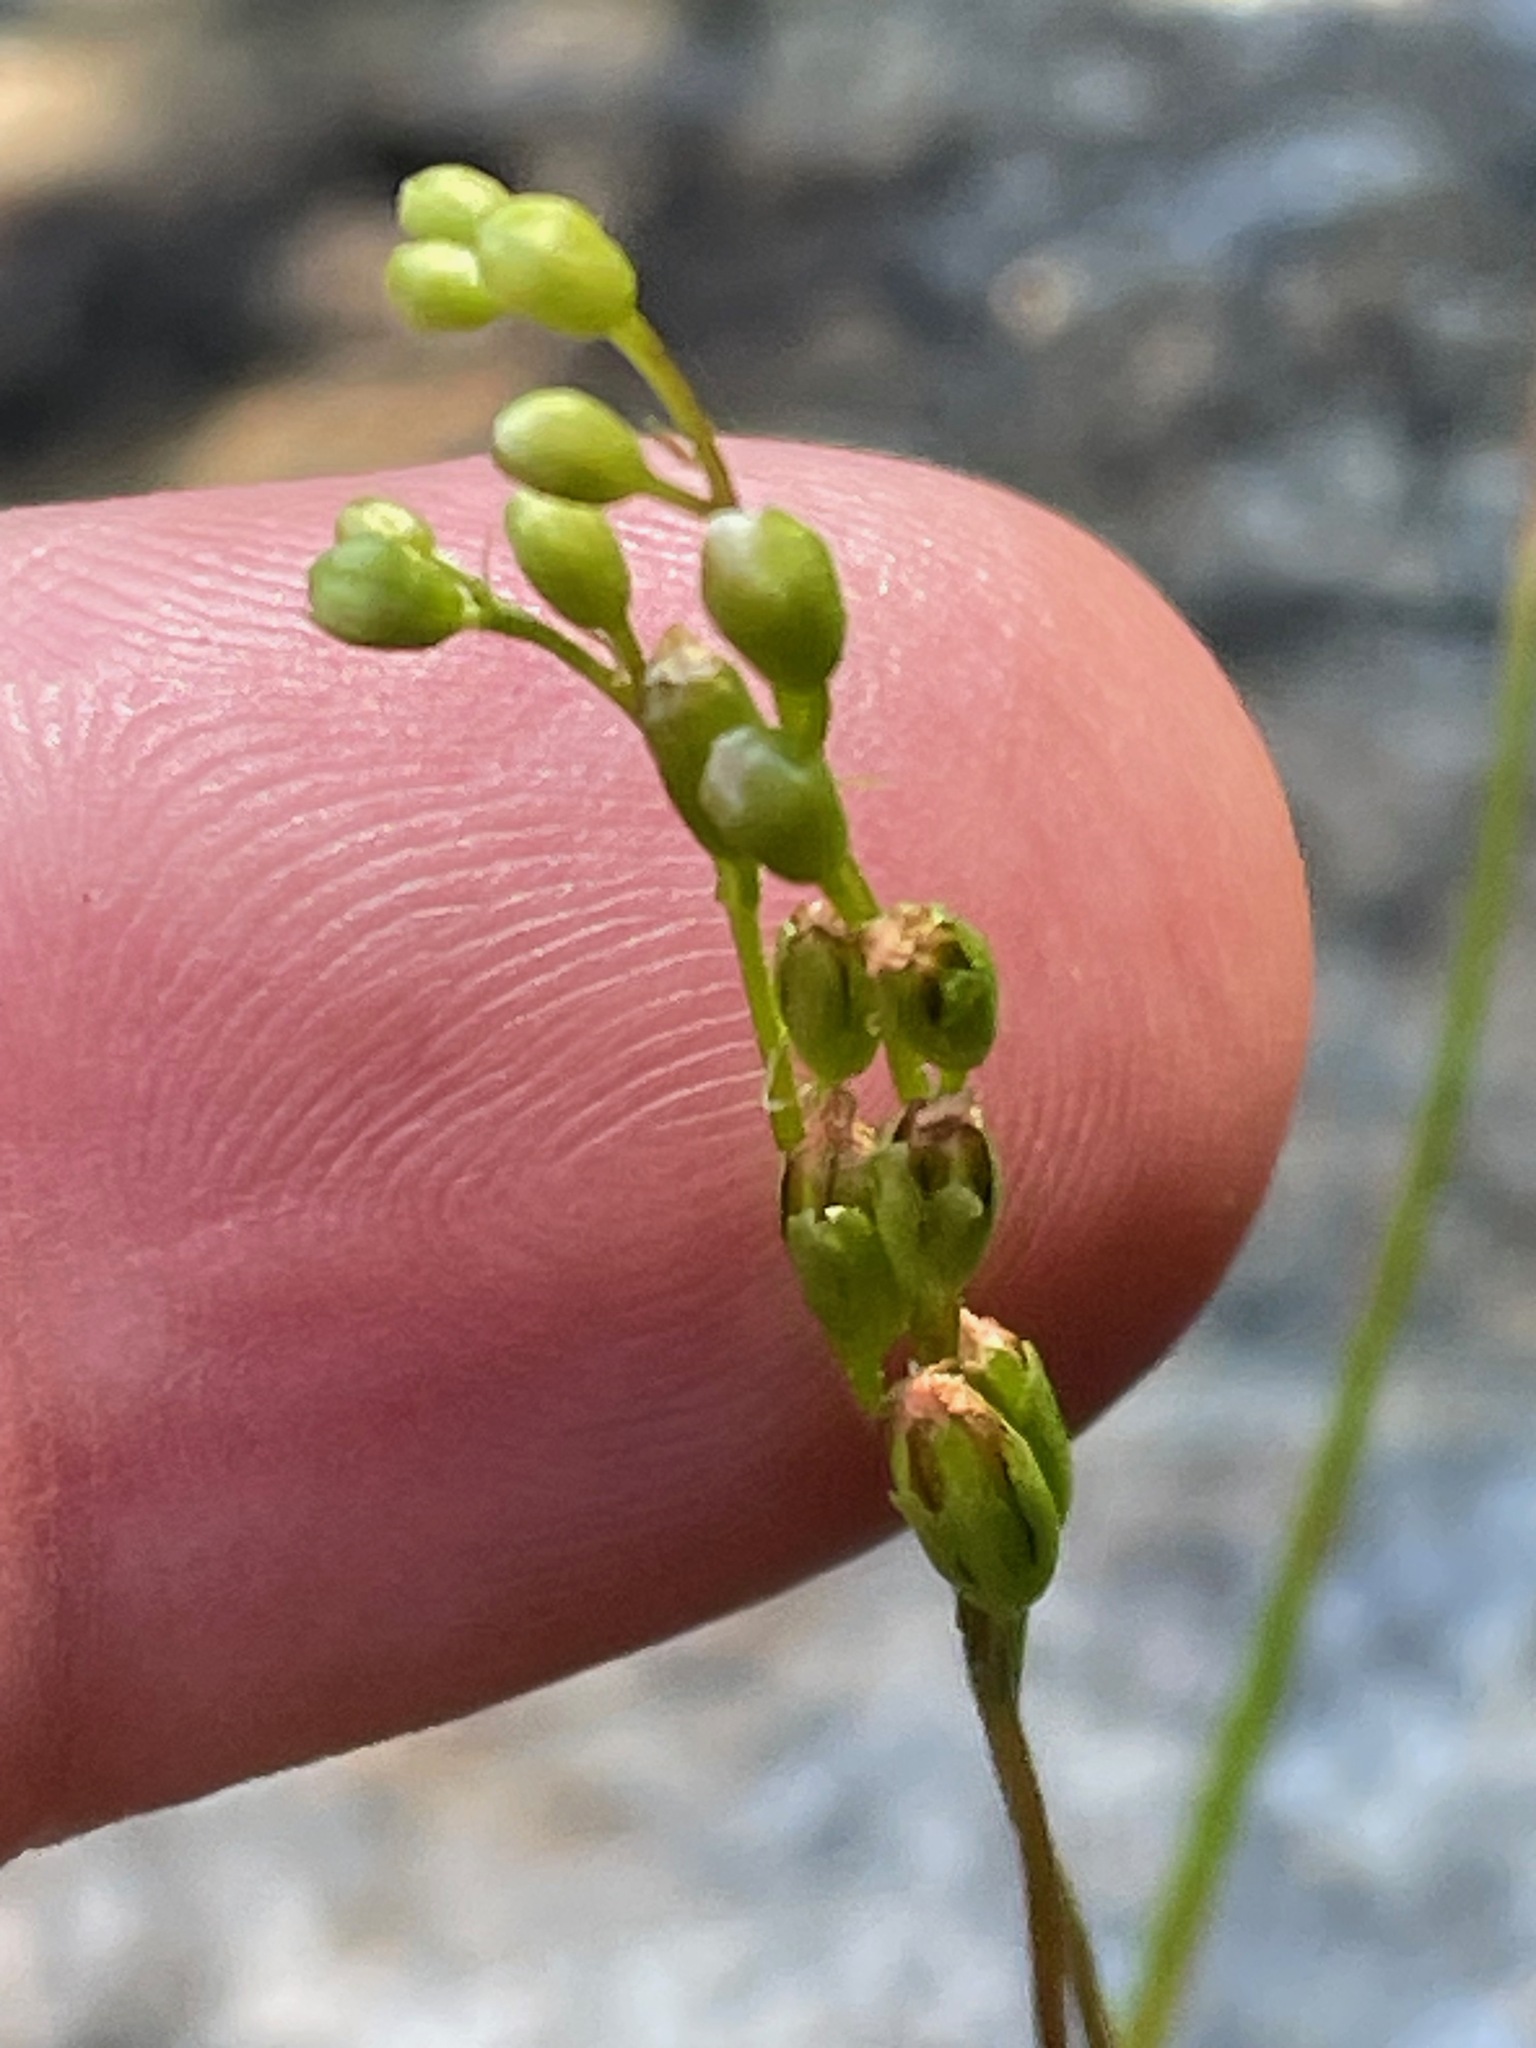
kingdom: Plantae
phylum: Tracheophyta
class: Magnoliopsida
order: Caryophyllales
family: Droseraceae
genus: Drosera
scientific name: Drosera rotundifolia
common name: Round-leaved sundew
